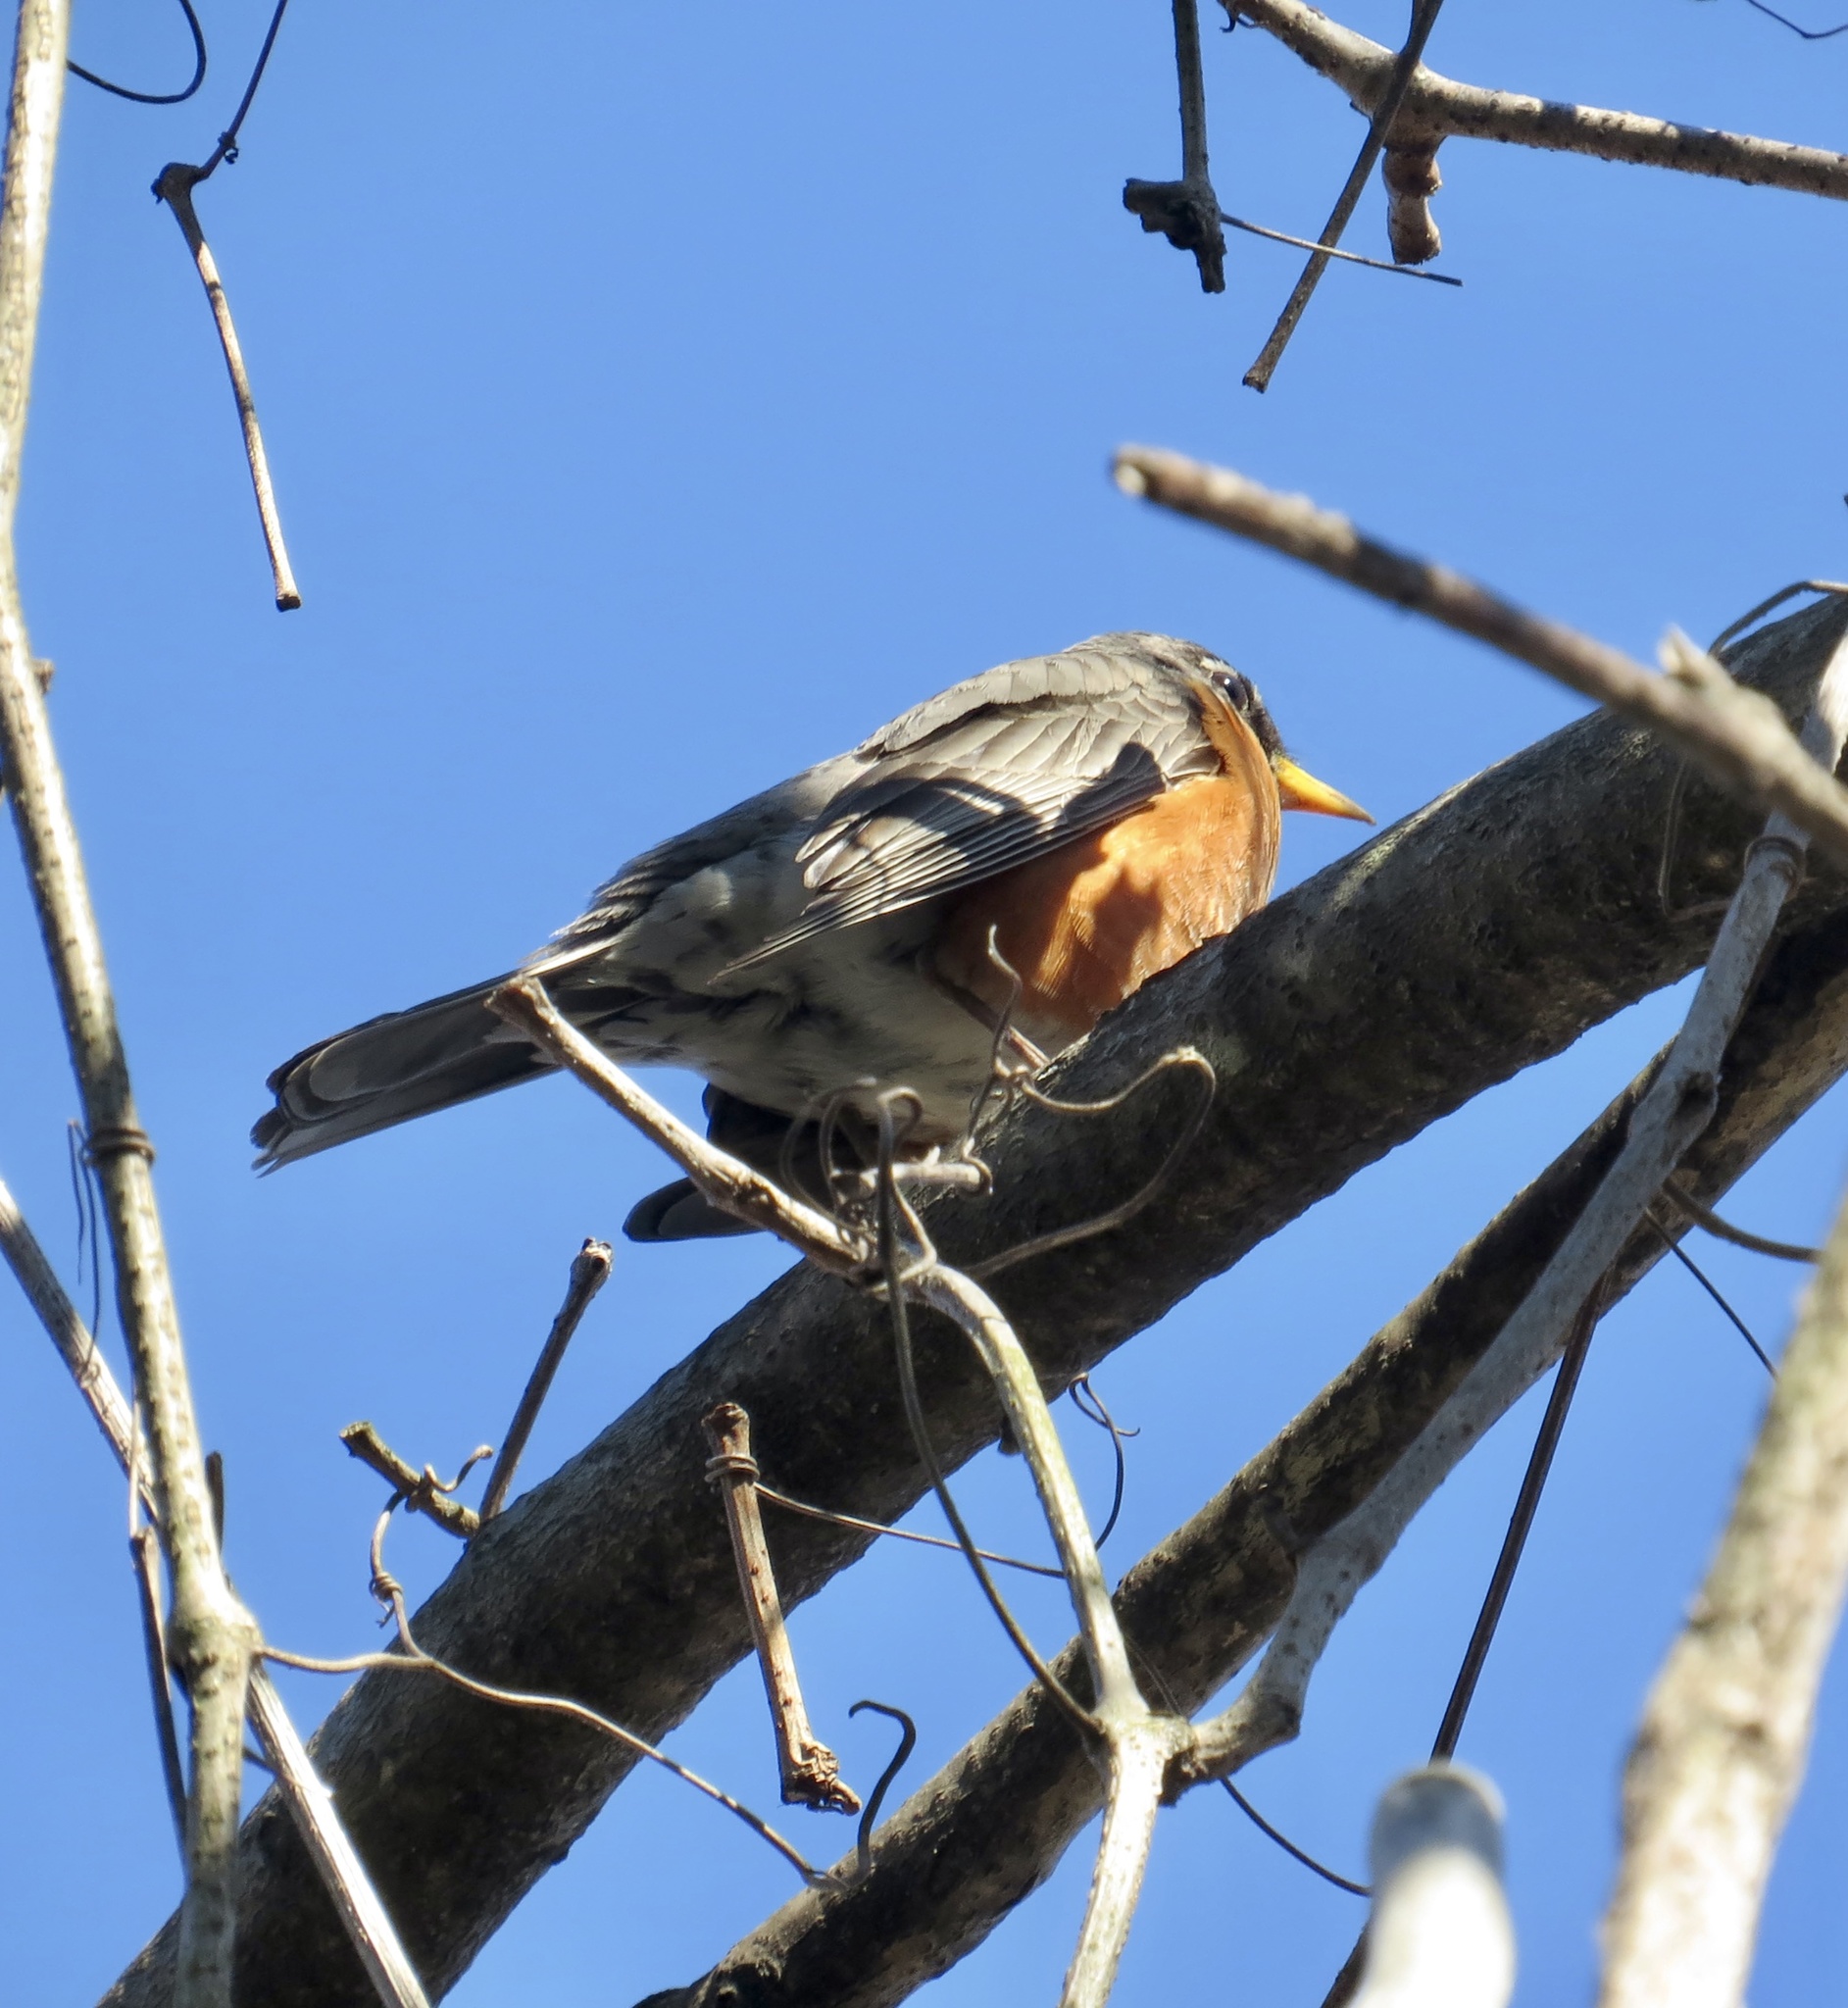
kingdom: Animalia
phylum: Chordata
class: Aves
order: Passeriformes
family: Turdidae
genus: Turdus
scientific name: Turdus migratorius
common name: American robin
